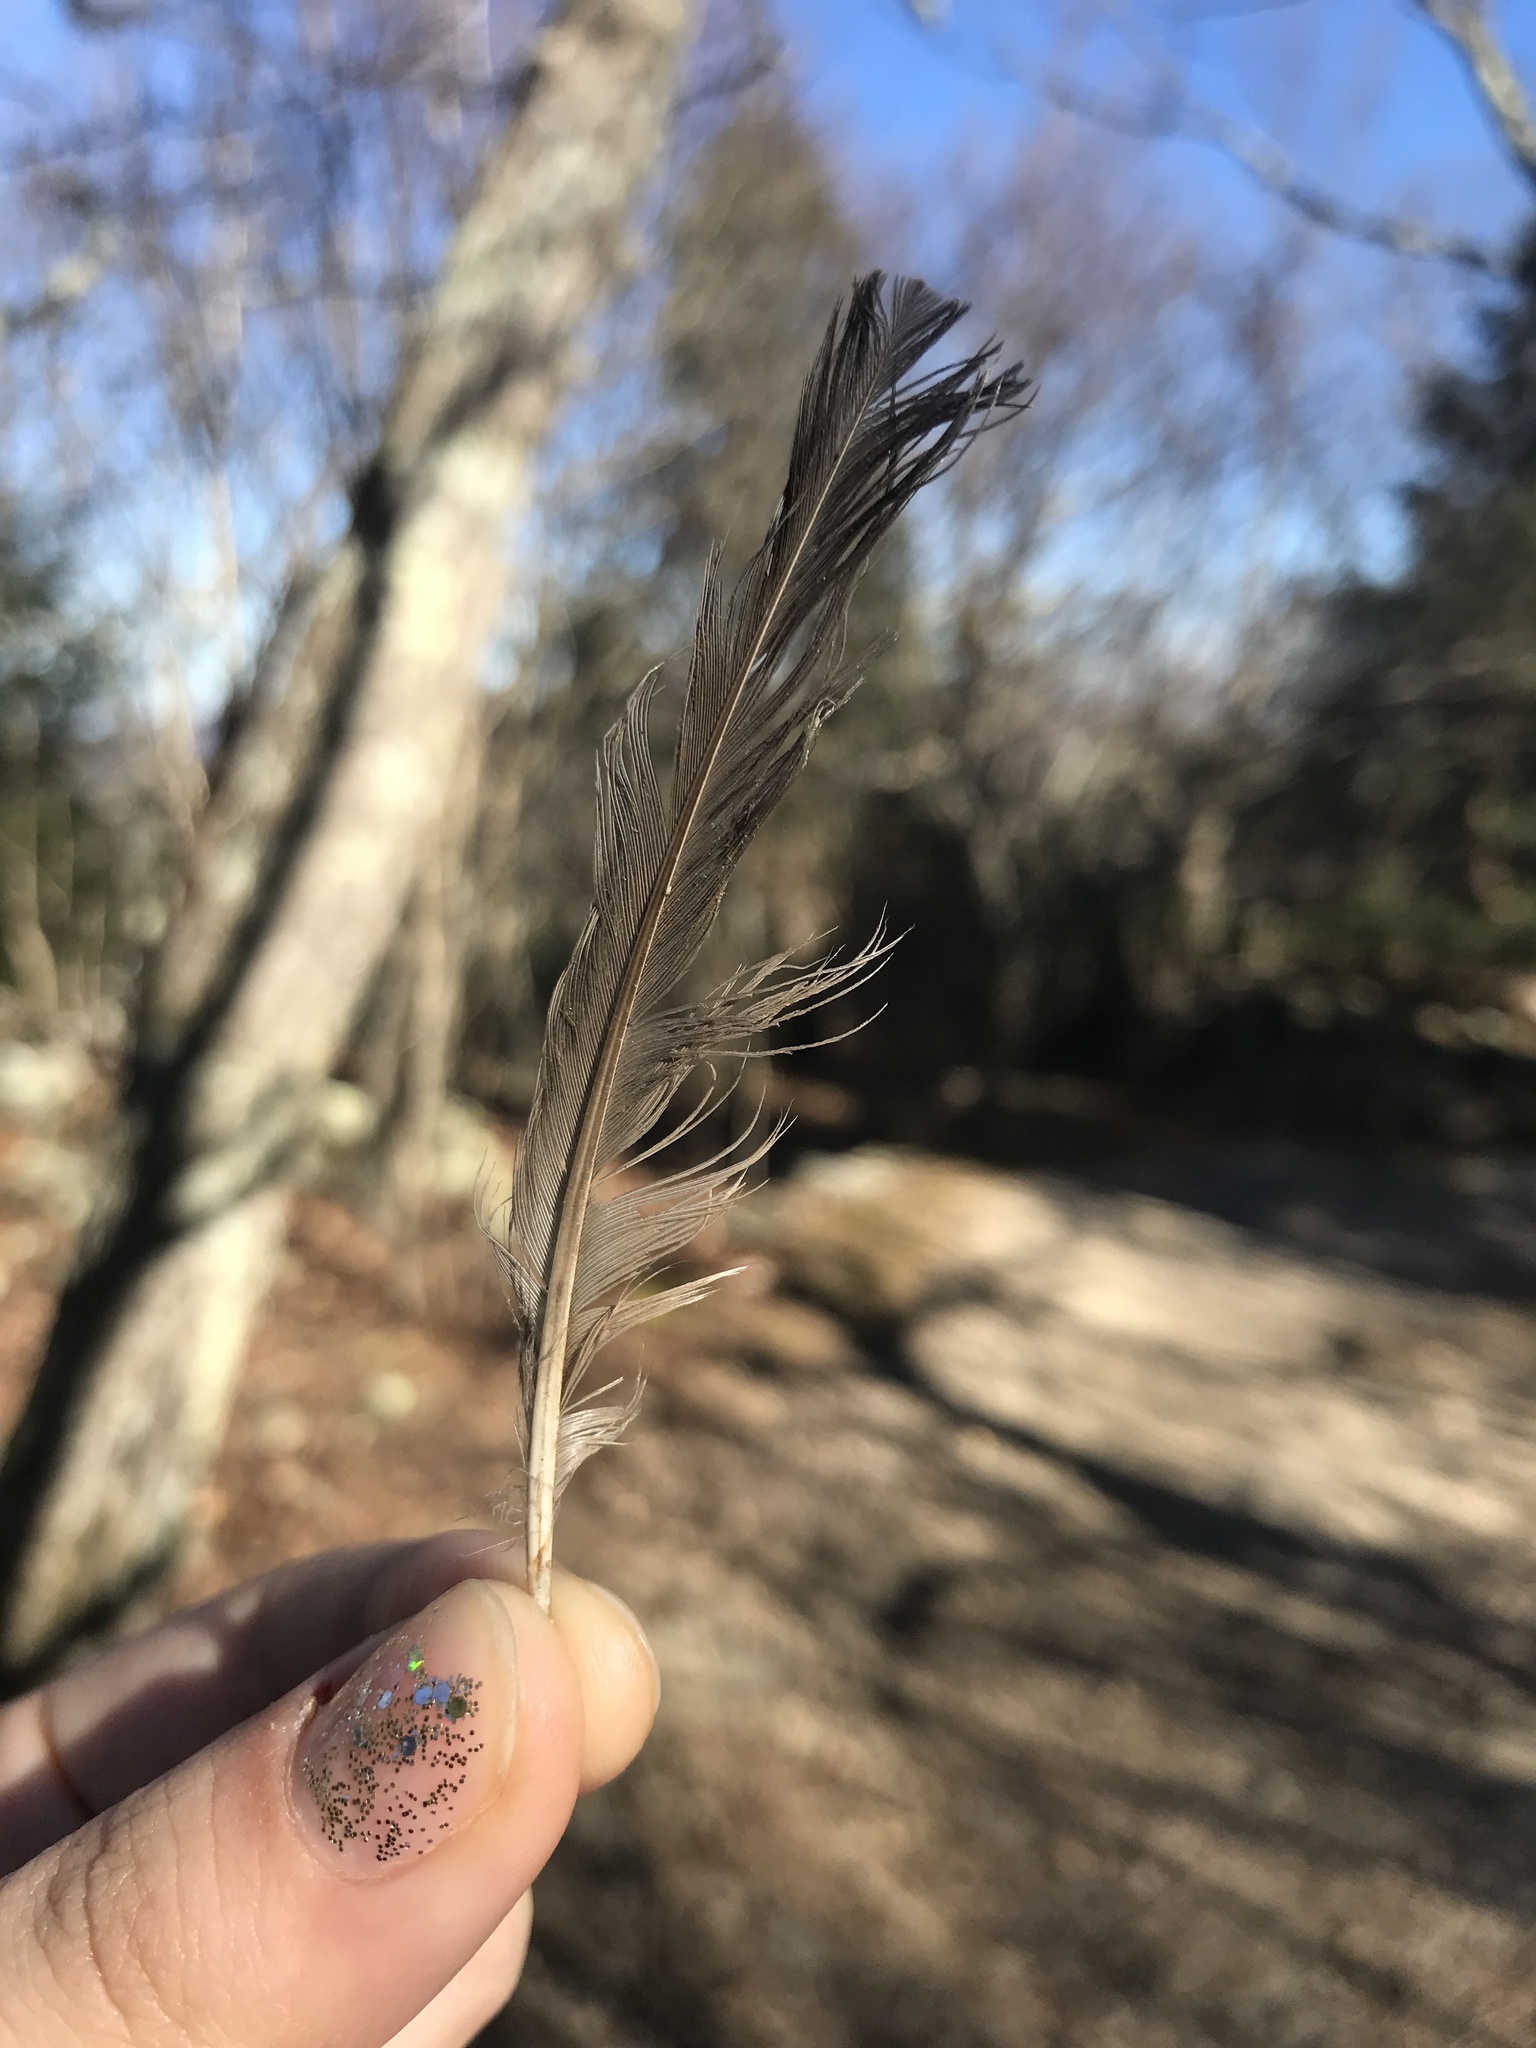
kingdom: Animalia
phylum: Chordata
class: Aves
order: Passeriformes
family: Turdidae
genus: Turdus
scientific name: Turdus migratorius
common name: American robin
